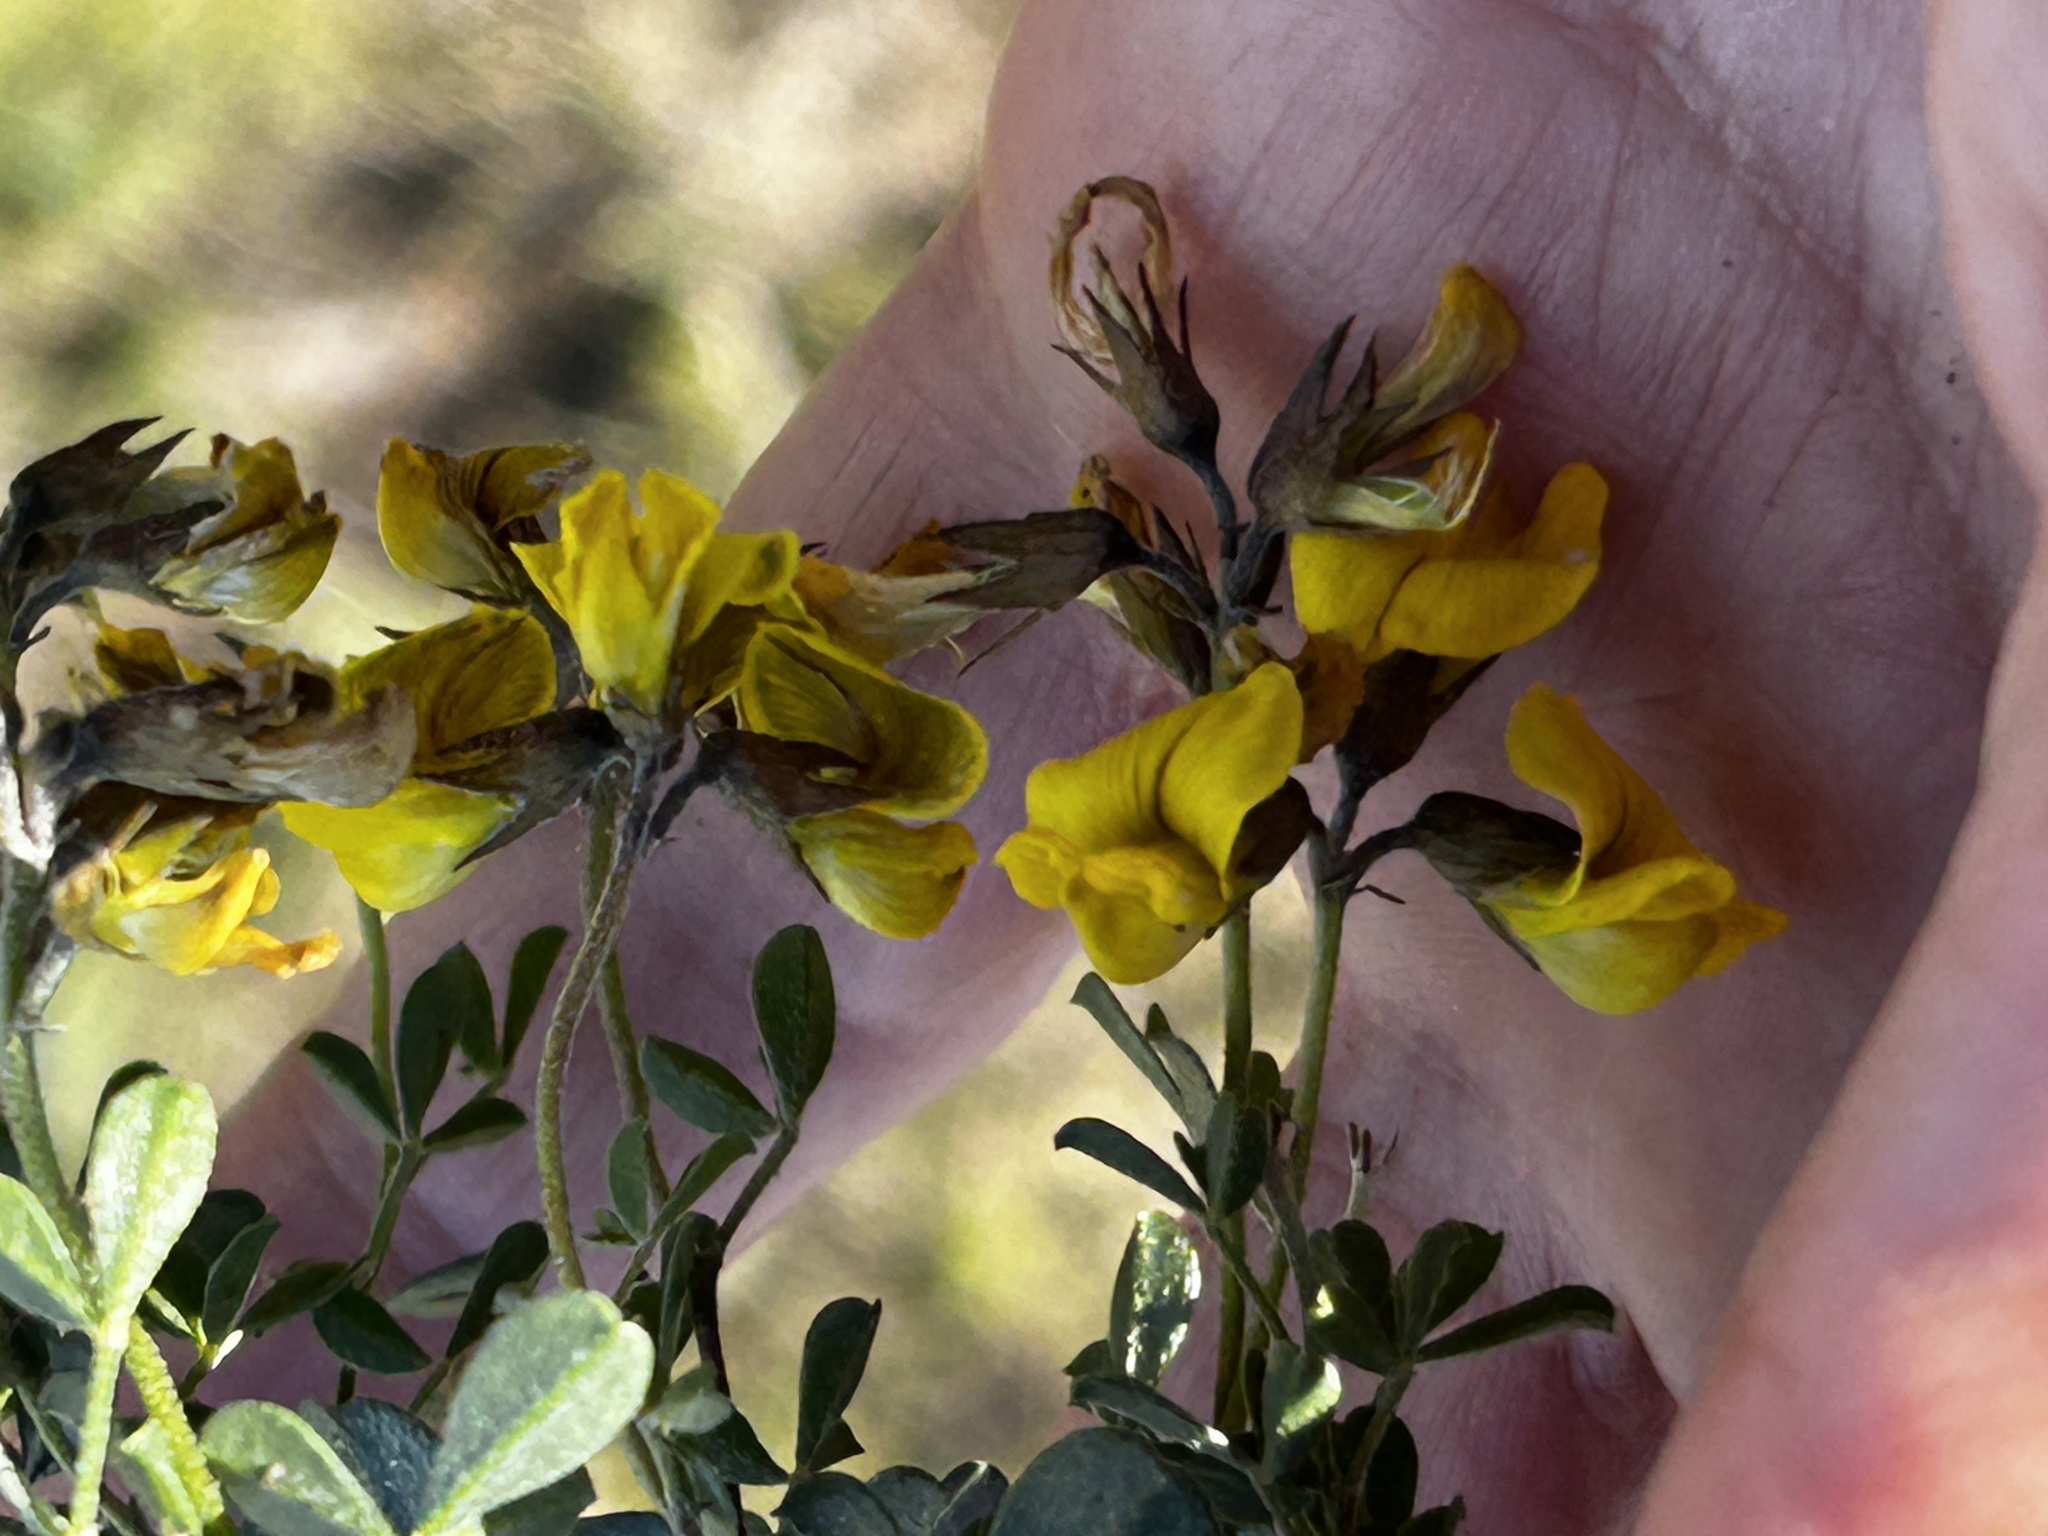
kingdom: Plantae
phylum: Tracheophyta
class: Magnoliopsida
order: Fabales
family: Fabaceae
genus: Lotononis
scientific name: Lotononis umbellata
